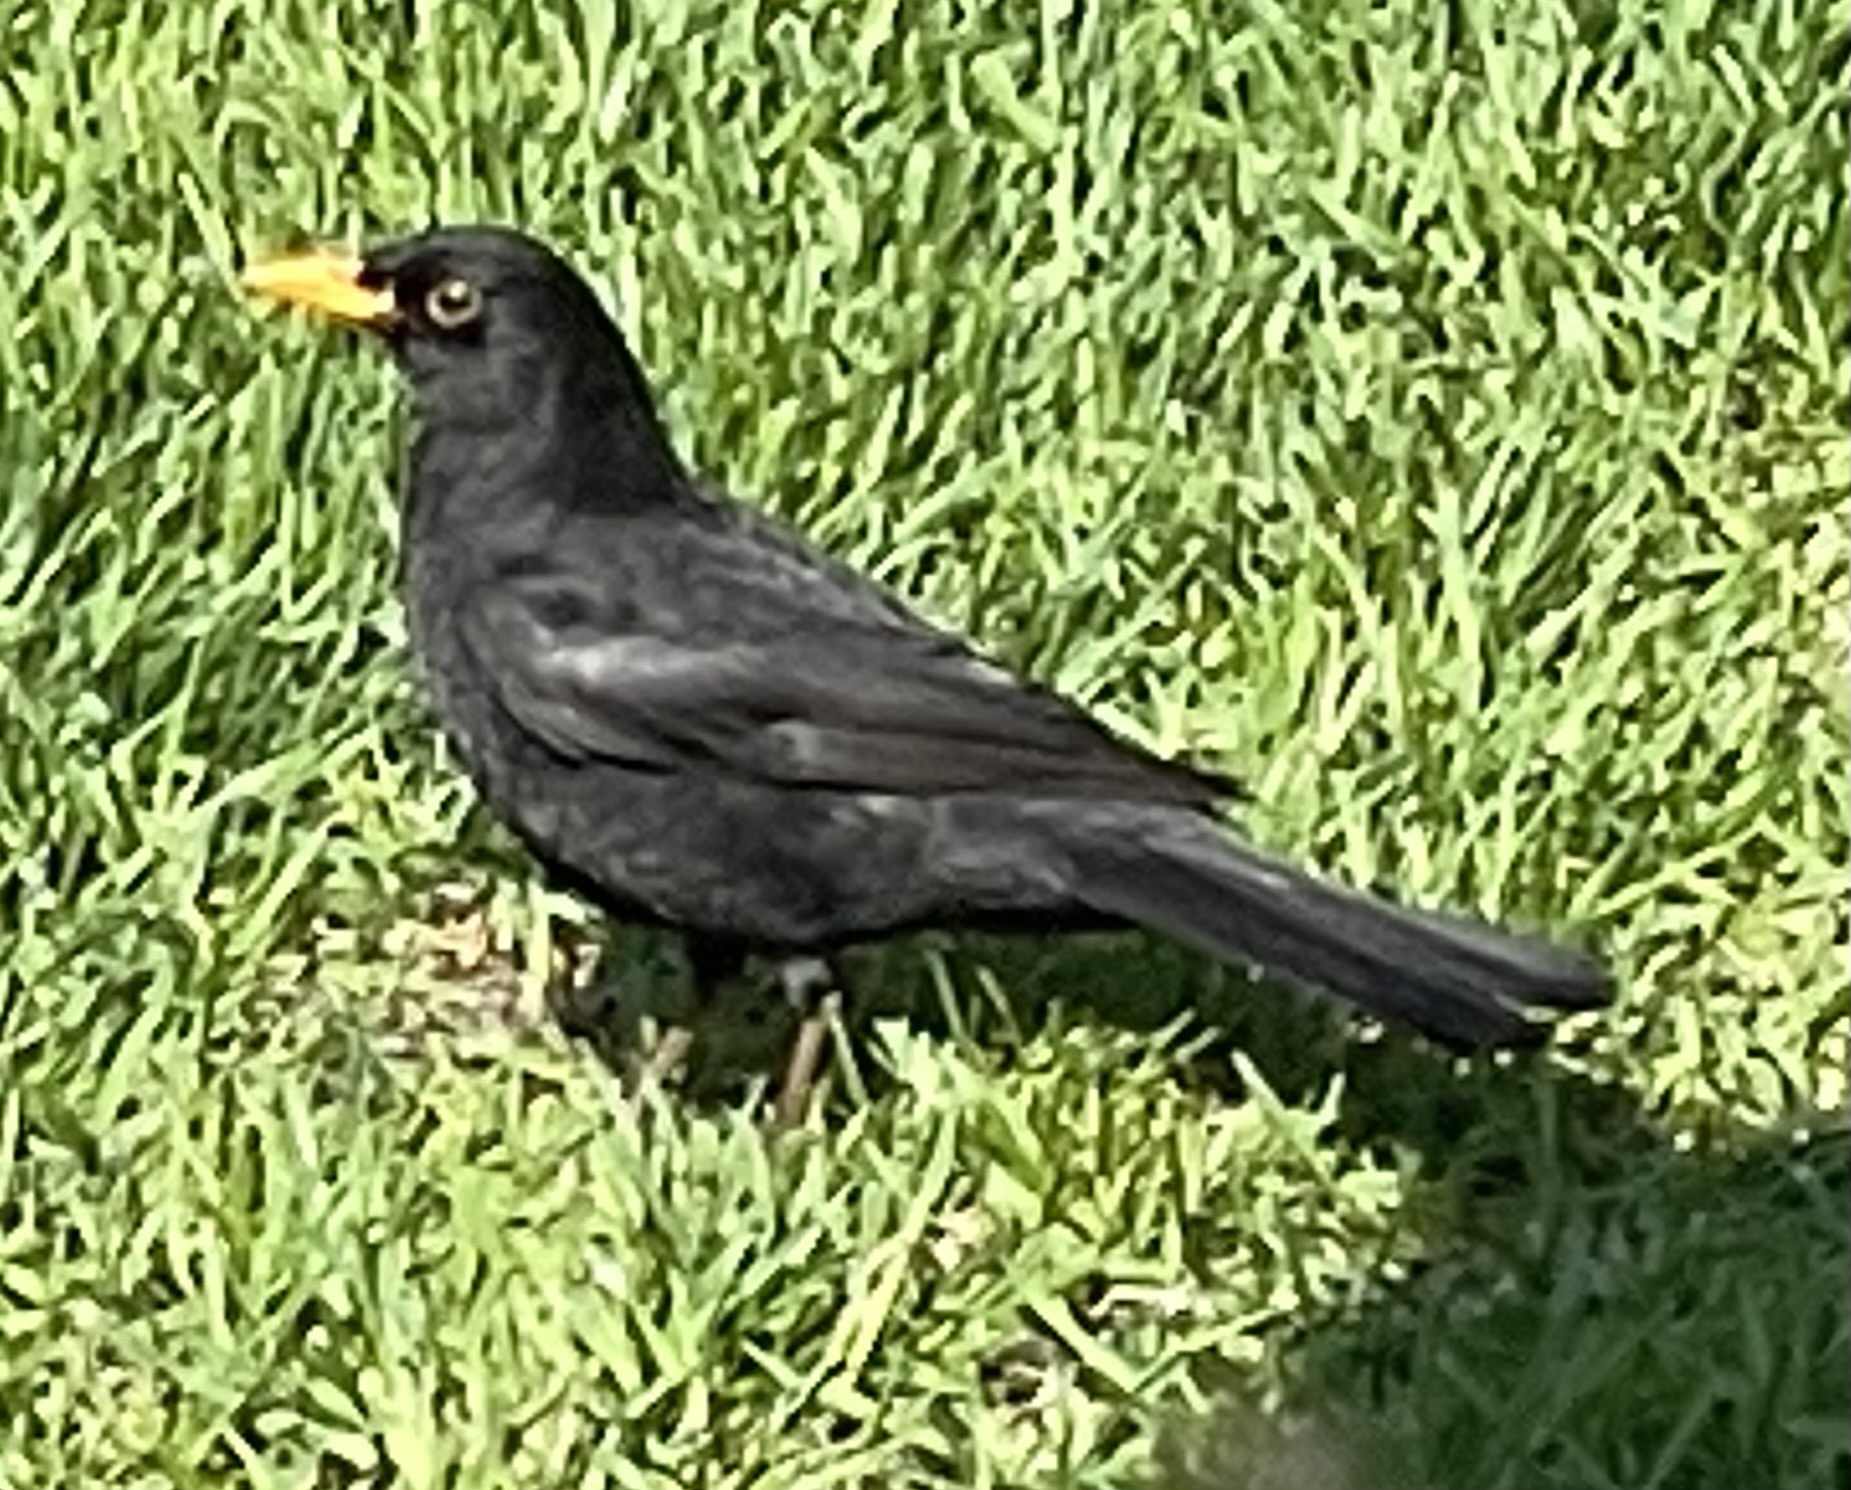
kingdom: Animalia
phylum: Chordata
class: Aves
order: Passeriformes
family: Turdidae
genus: Turdus
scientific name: Turdus merula
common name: Common blackbird
